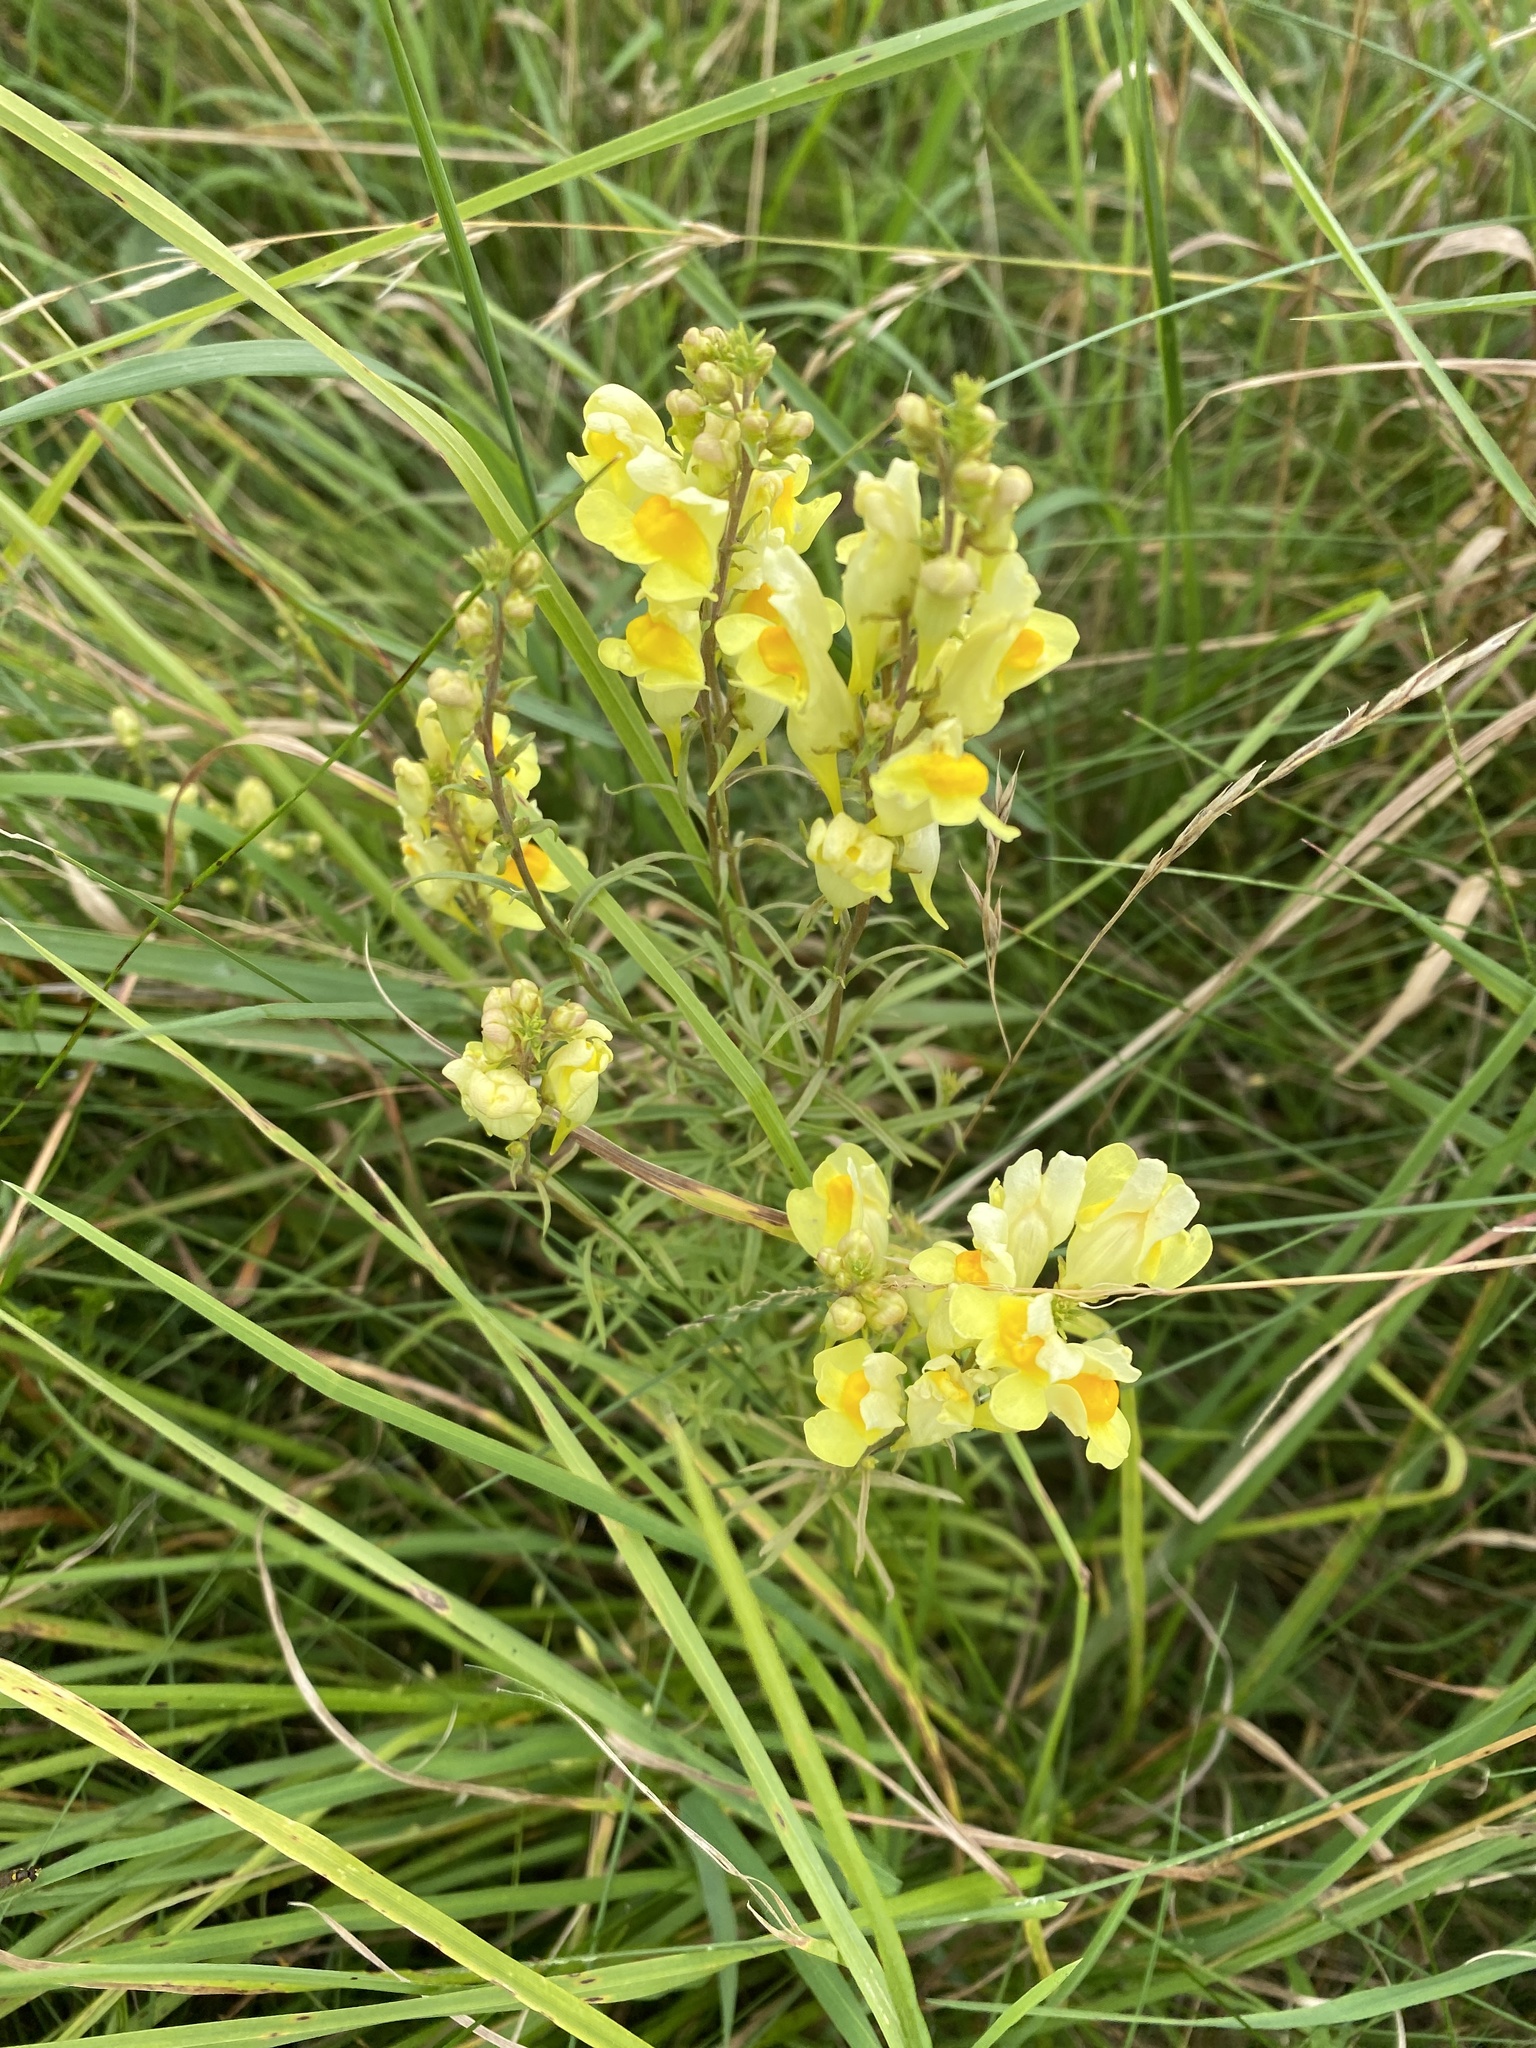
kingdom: Plantae
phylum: Tracheophyta
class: Magnoliopsida
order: Lamiales
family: Plantaginaceae
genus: Linaria
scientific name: Linaria vulgaris
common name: Butter and eggs
